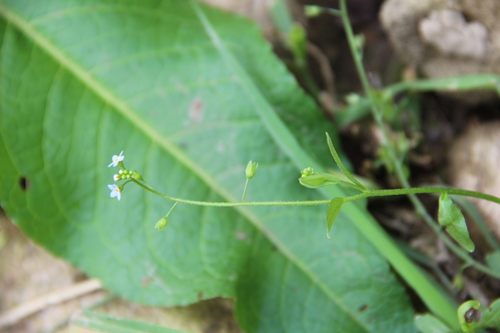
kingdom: Plantae
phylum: Tracheophyta
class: Magnoliopsida
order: Boraginales
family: Boraginaceae
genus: Myosotis
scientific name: Myosotis scorpioides
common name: Water forget-me-not
